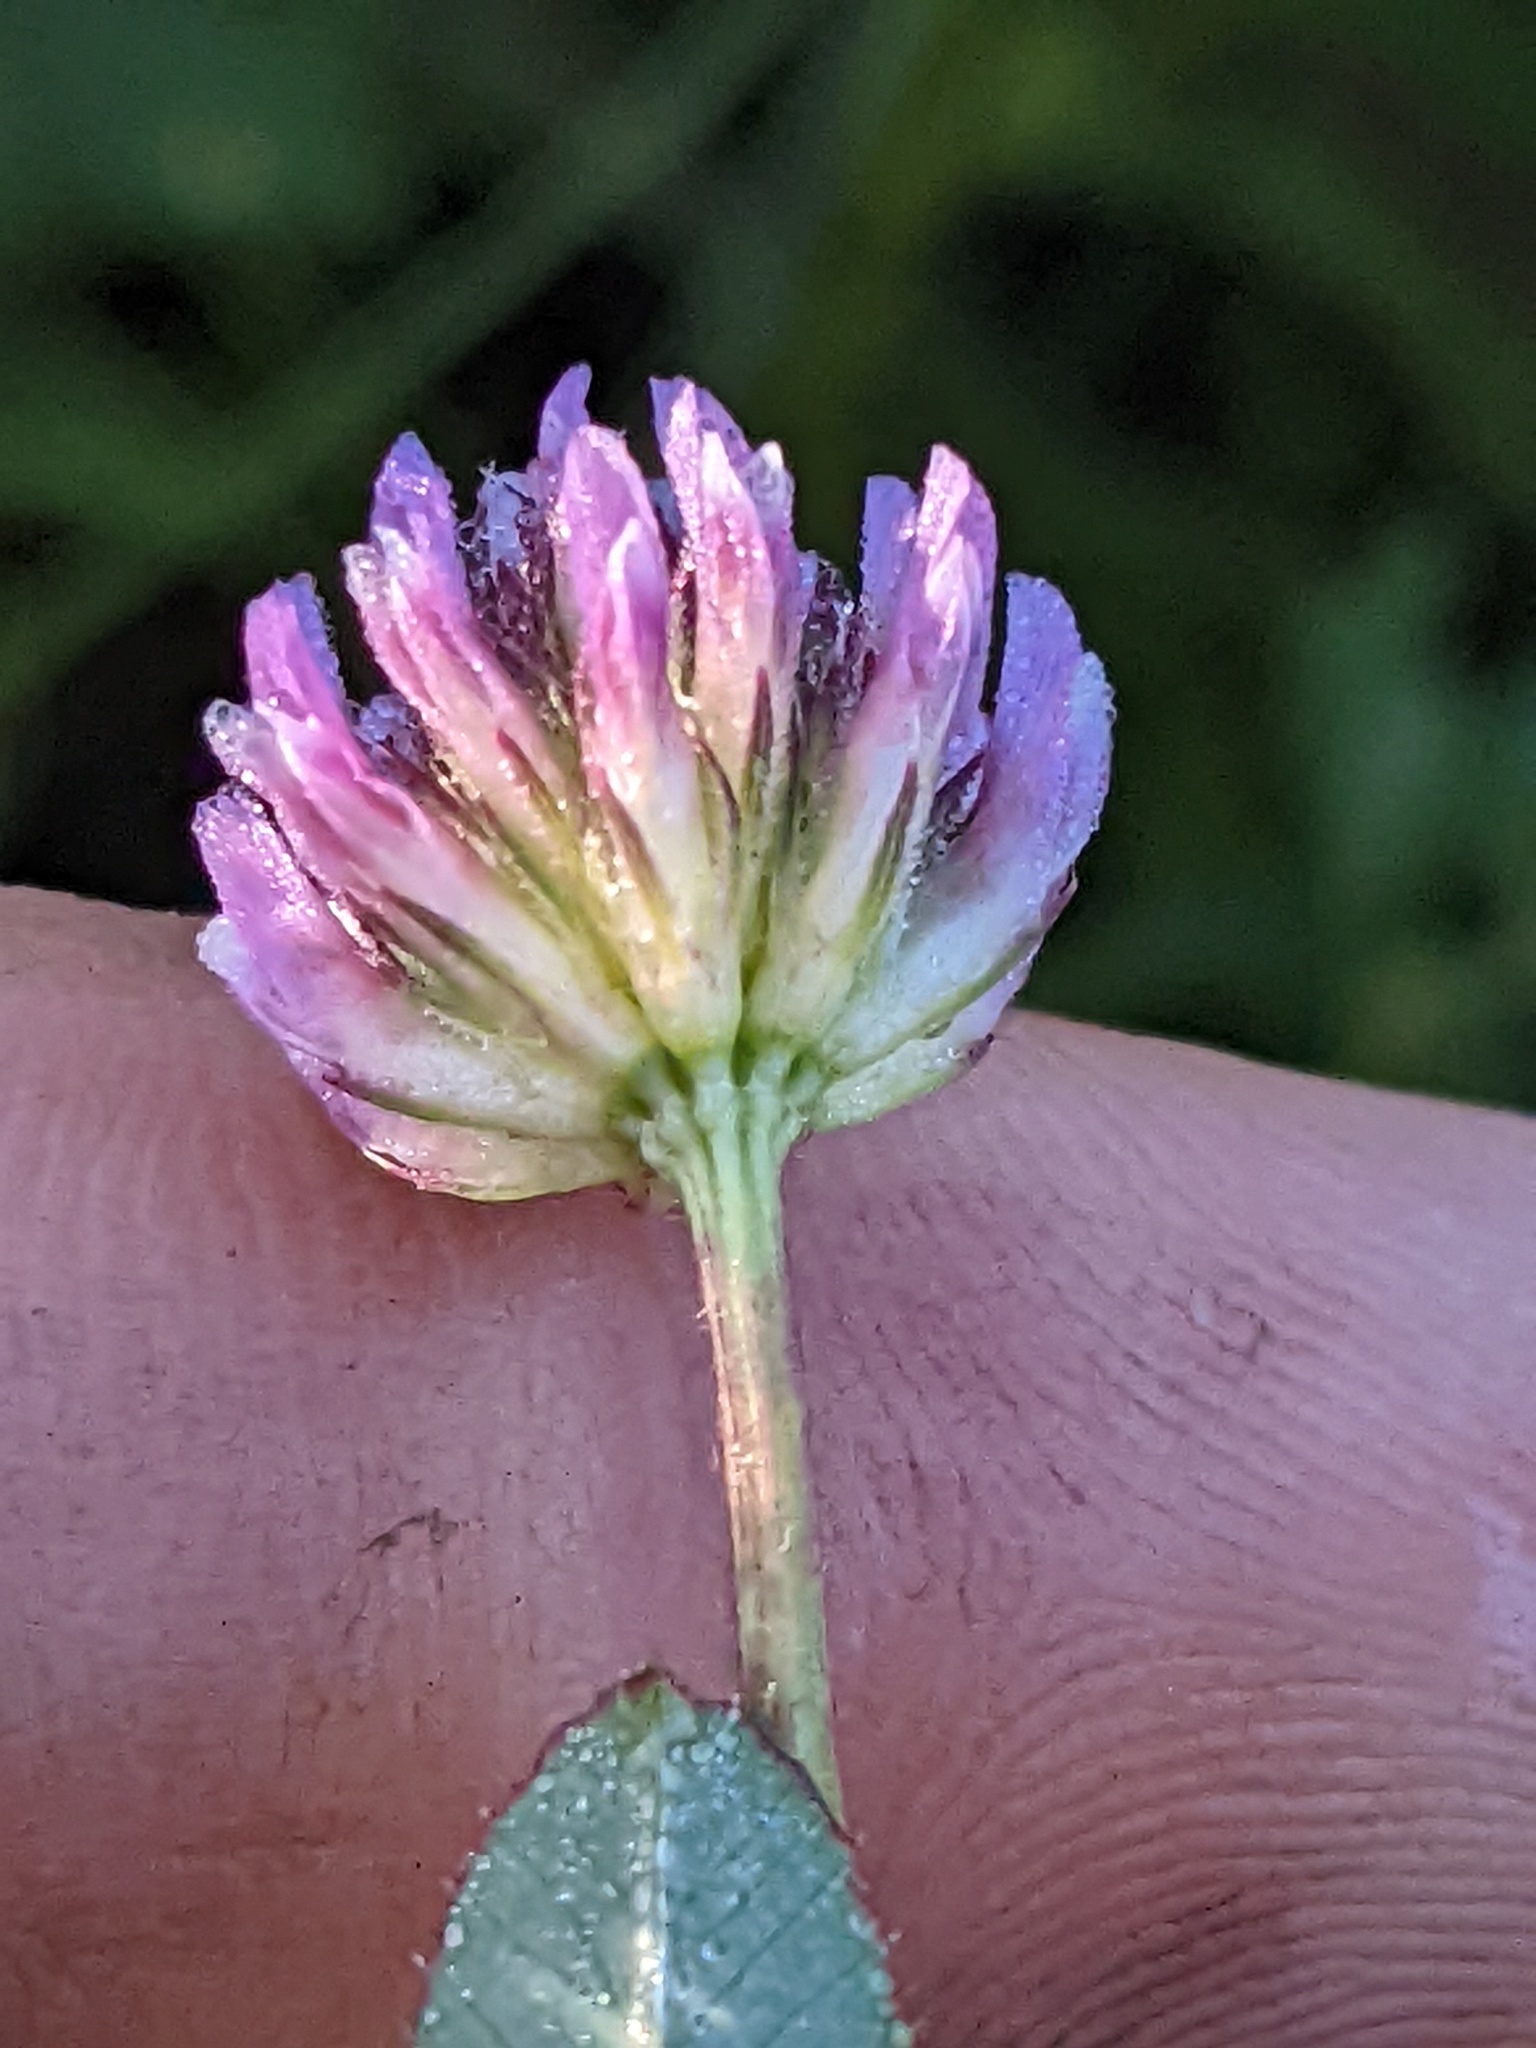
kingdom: Plantae
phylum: Tracheophyta
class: Magnoliopsida
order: Fabales
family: Fabaceae
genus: Trifolium
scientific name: Trifolium ciliolatum
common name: Foothill clover
